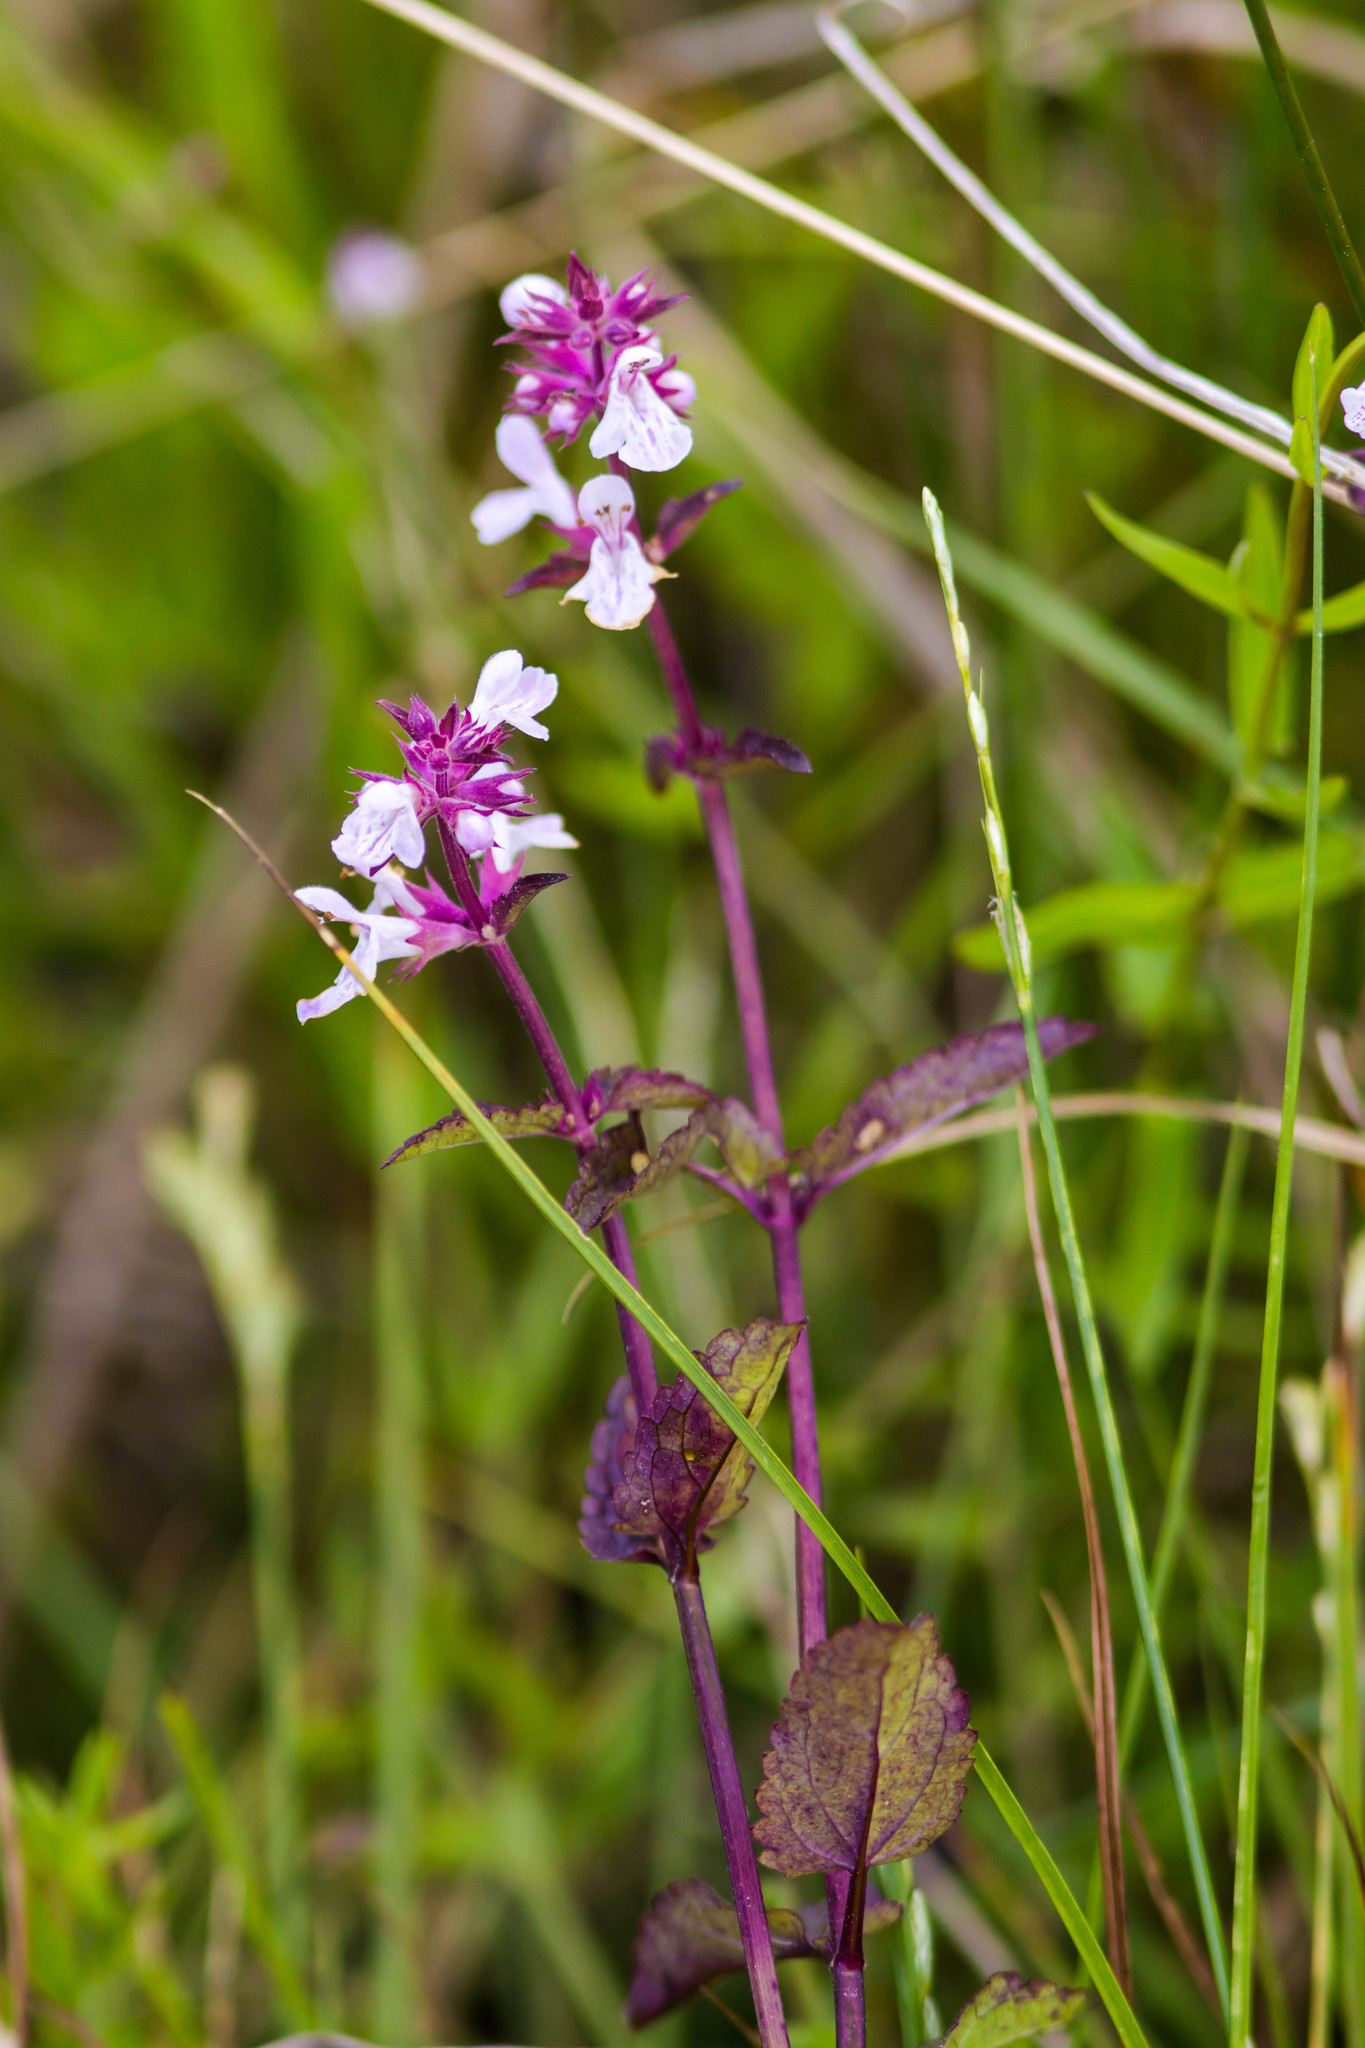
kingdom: Plantae
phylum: Tracheophyta
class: Magnoliopsida
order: Lamiales
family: Lamiaceae
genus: Stachys
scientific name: Stachys floridana
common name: Florida betony
